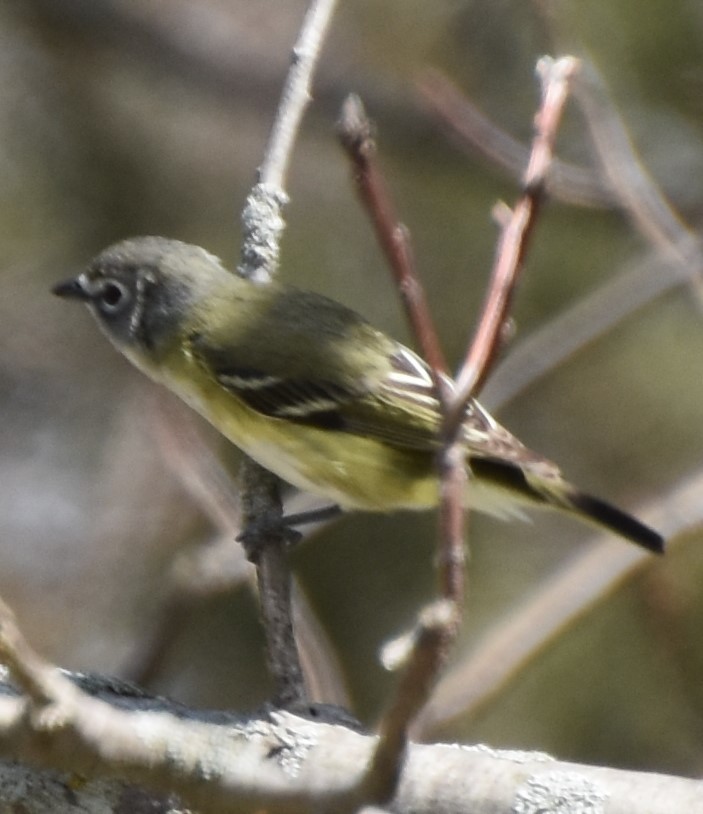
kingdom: Animalia
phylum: Chordata
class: Aves
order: Passeriformes
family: Vireonidae
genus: Vireo
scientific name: Vireo solitarius
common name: Blue-headed vireo
